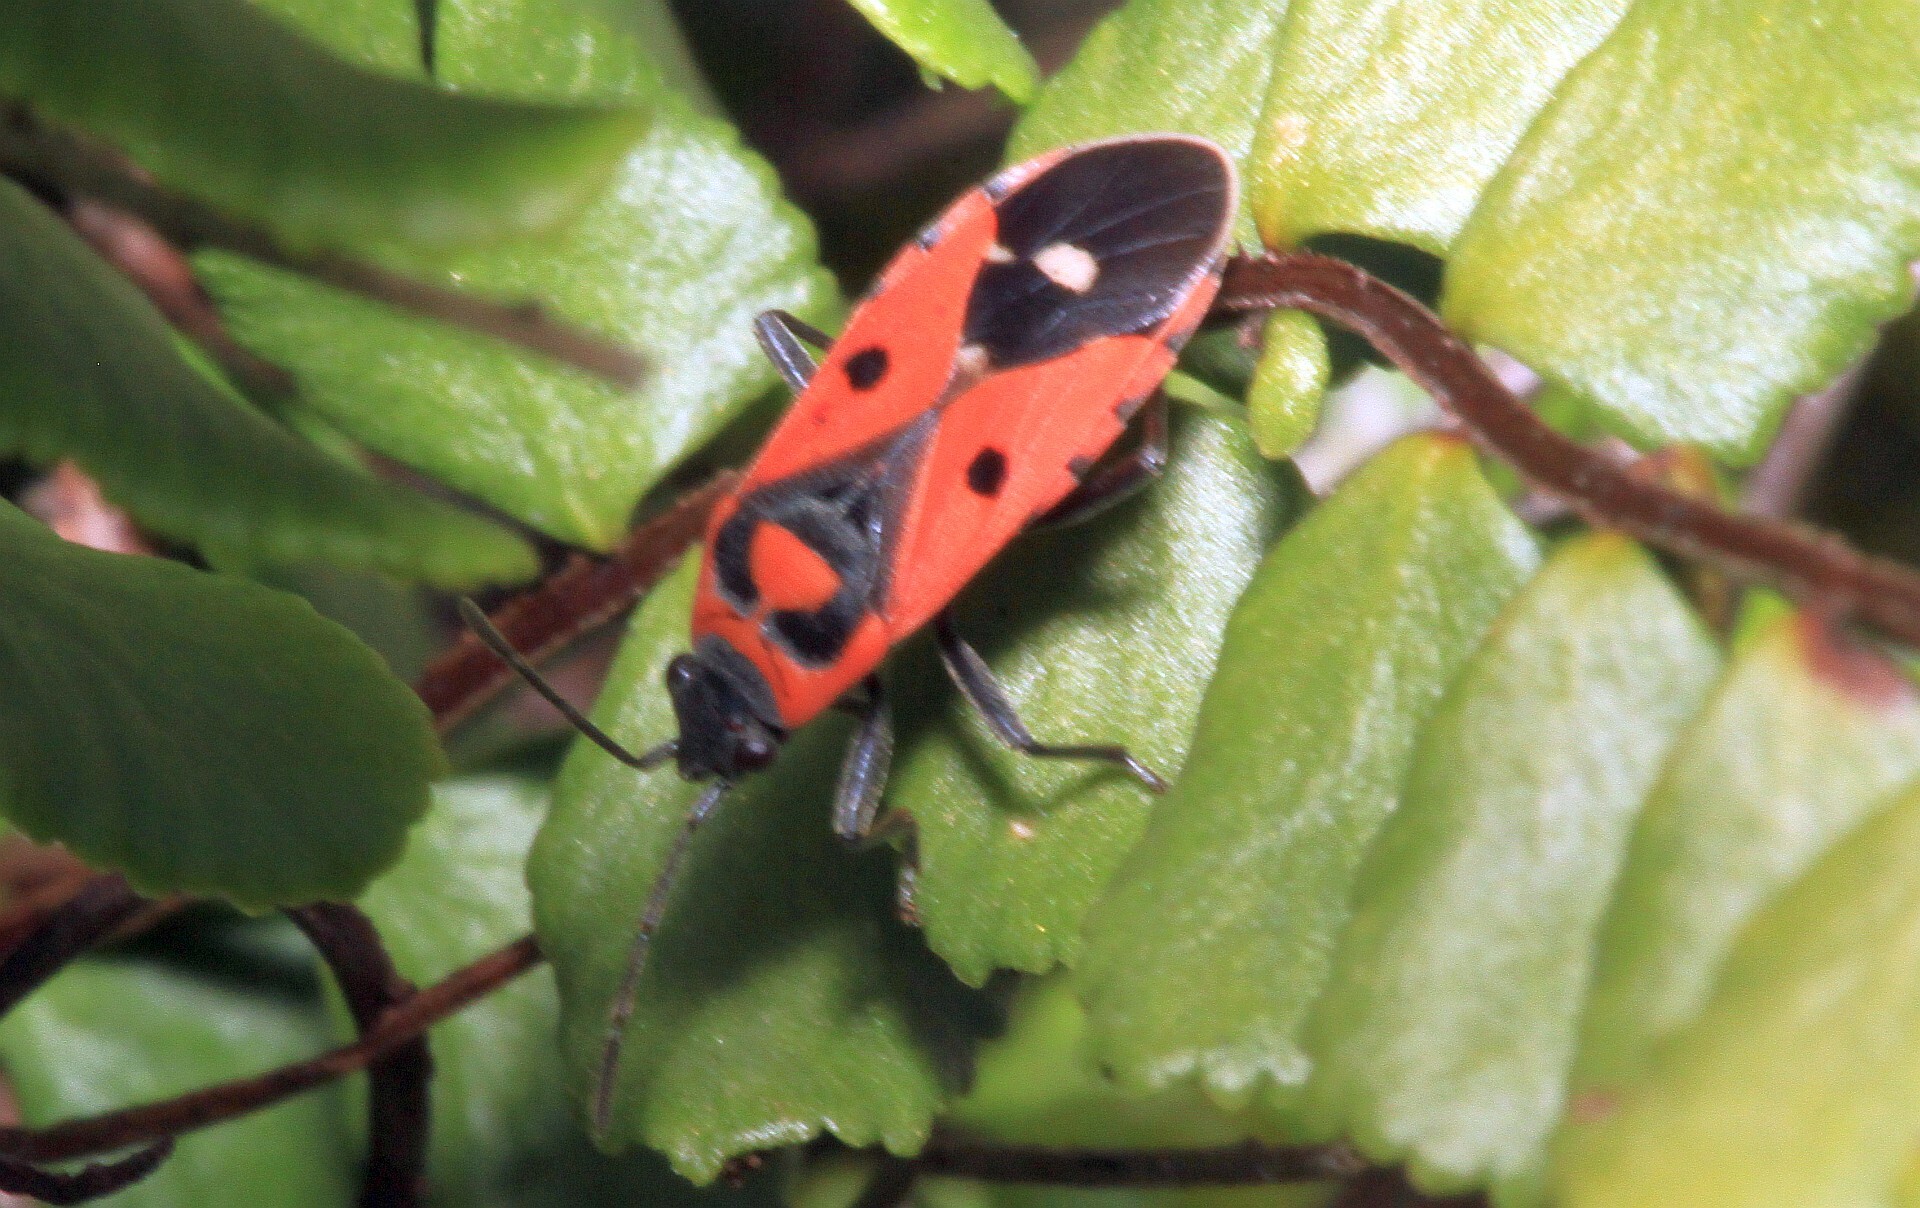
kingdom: Animalia
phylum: Arthropoda
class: Insecta
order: Hemiptera
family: Lygaeidae
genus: Melanocoryphus
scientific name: Melanocoryphus albomaculatus
